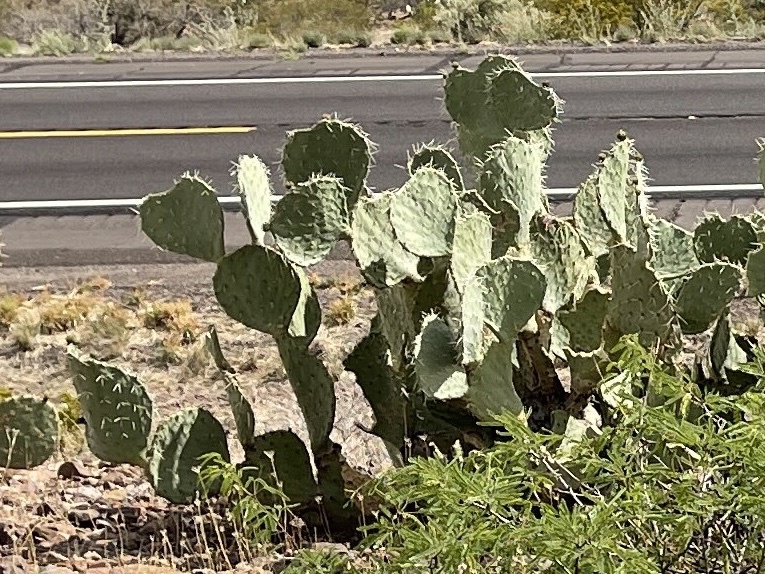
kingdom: Plantae
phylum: Tracheophyta
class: Magnoliopsida
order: Caryophyllales
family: Cactaceae
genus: Opuntia
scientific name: Opuntia engelmannii
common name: Cactus-apple
